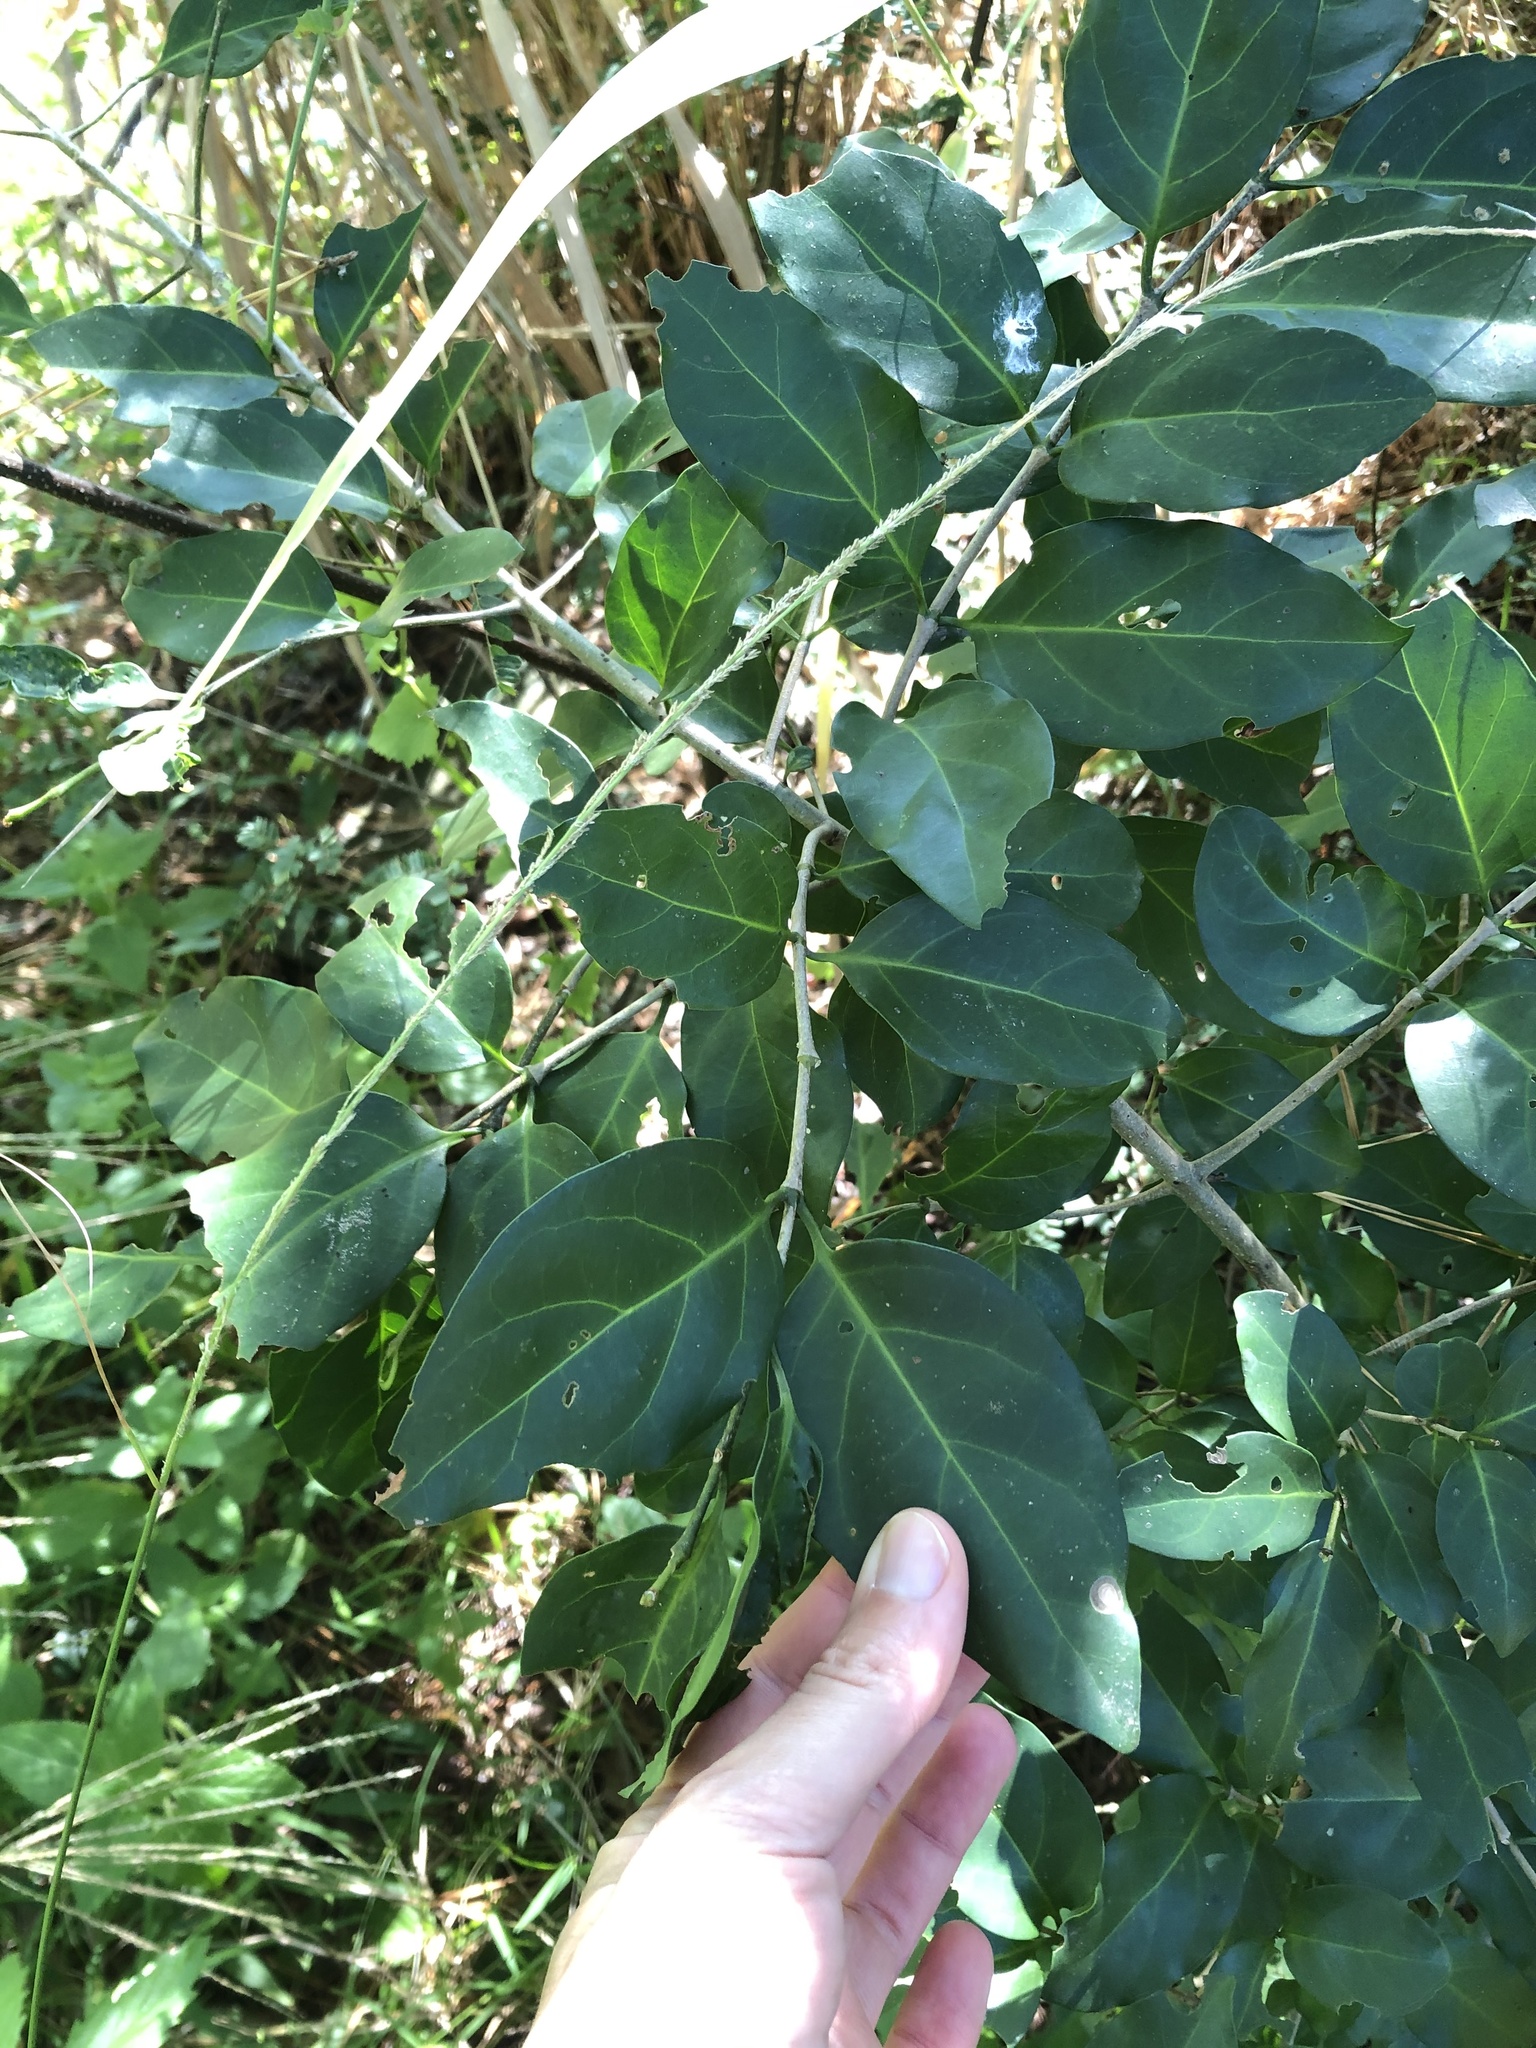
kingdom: Plantae
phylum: Tracheophyta
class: Magnoliopsida
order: Gentianales
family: Rubiaceae
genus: Canthium
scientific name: Canthium inerme
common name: Unarmed turkey-berry
